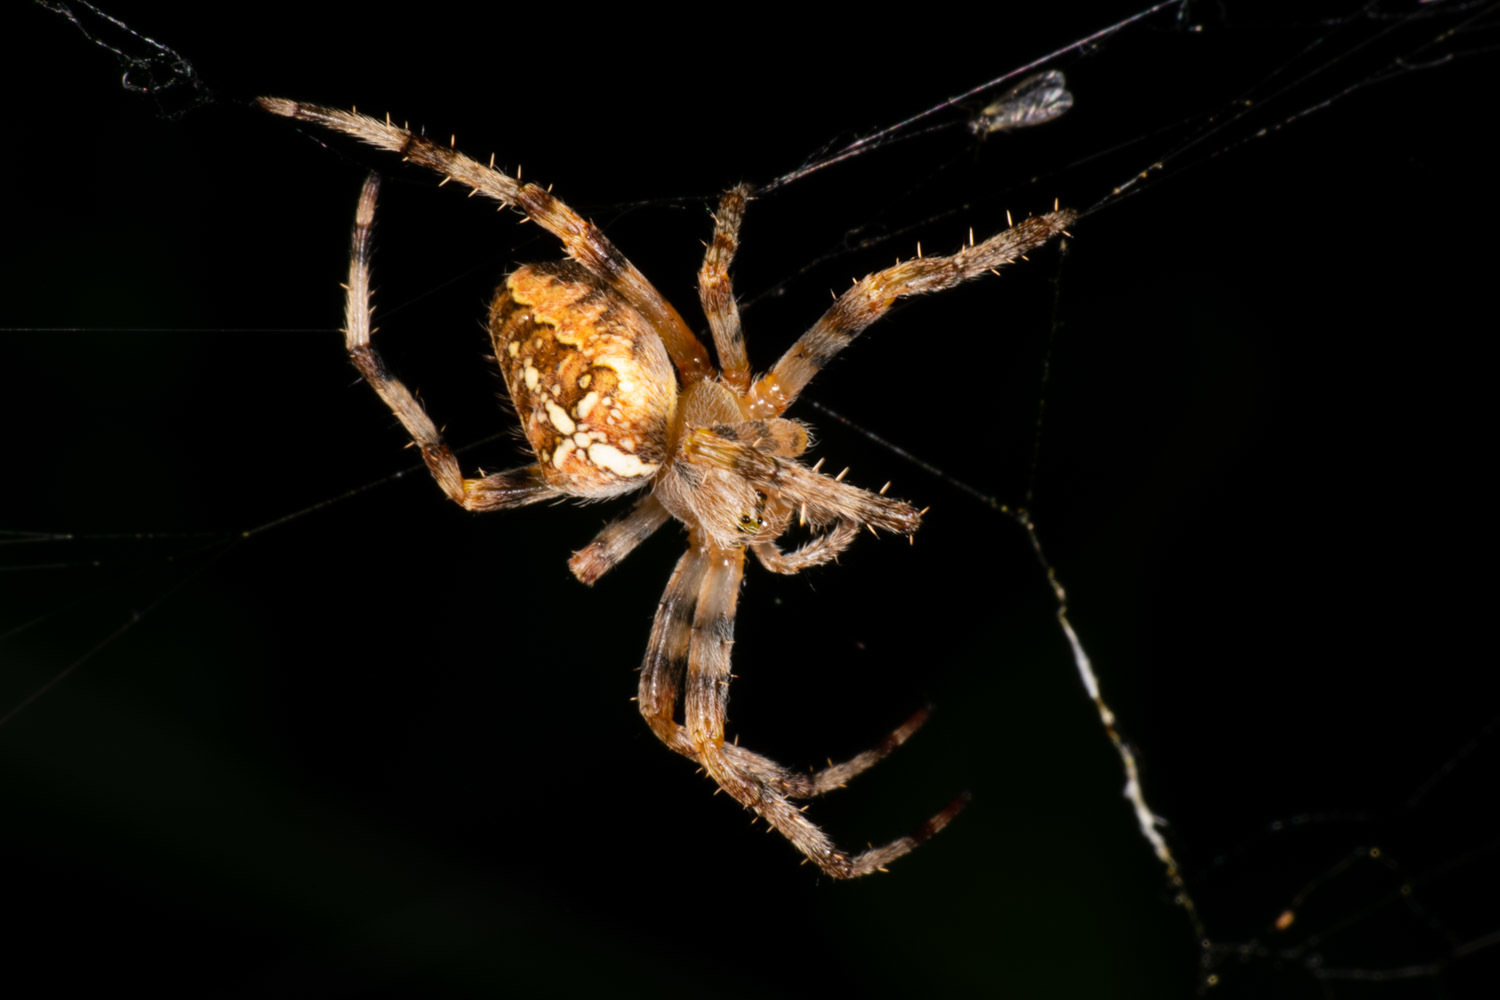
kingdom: Animalia
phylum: Arthropoda
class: Arachnida
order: Araneae
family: Araneidae
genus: Araneus
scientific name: Araneus diadematus
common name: Cross orbweaver
